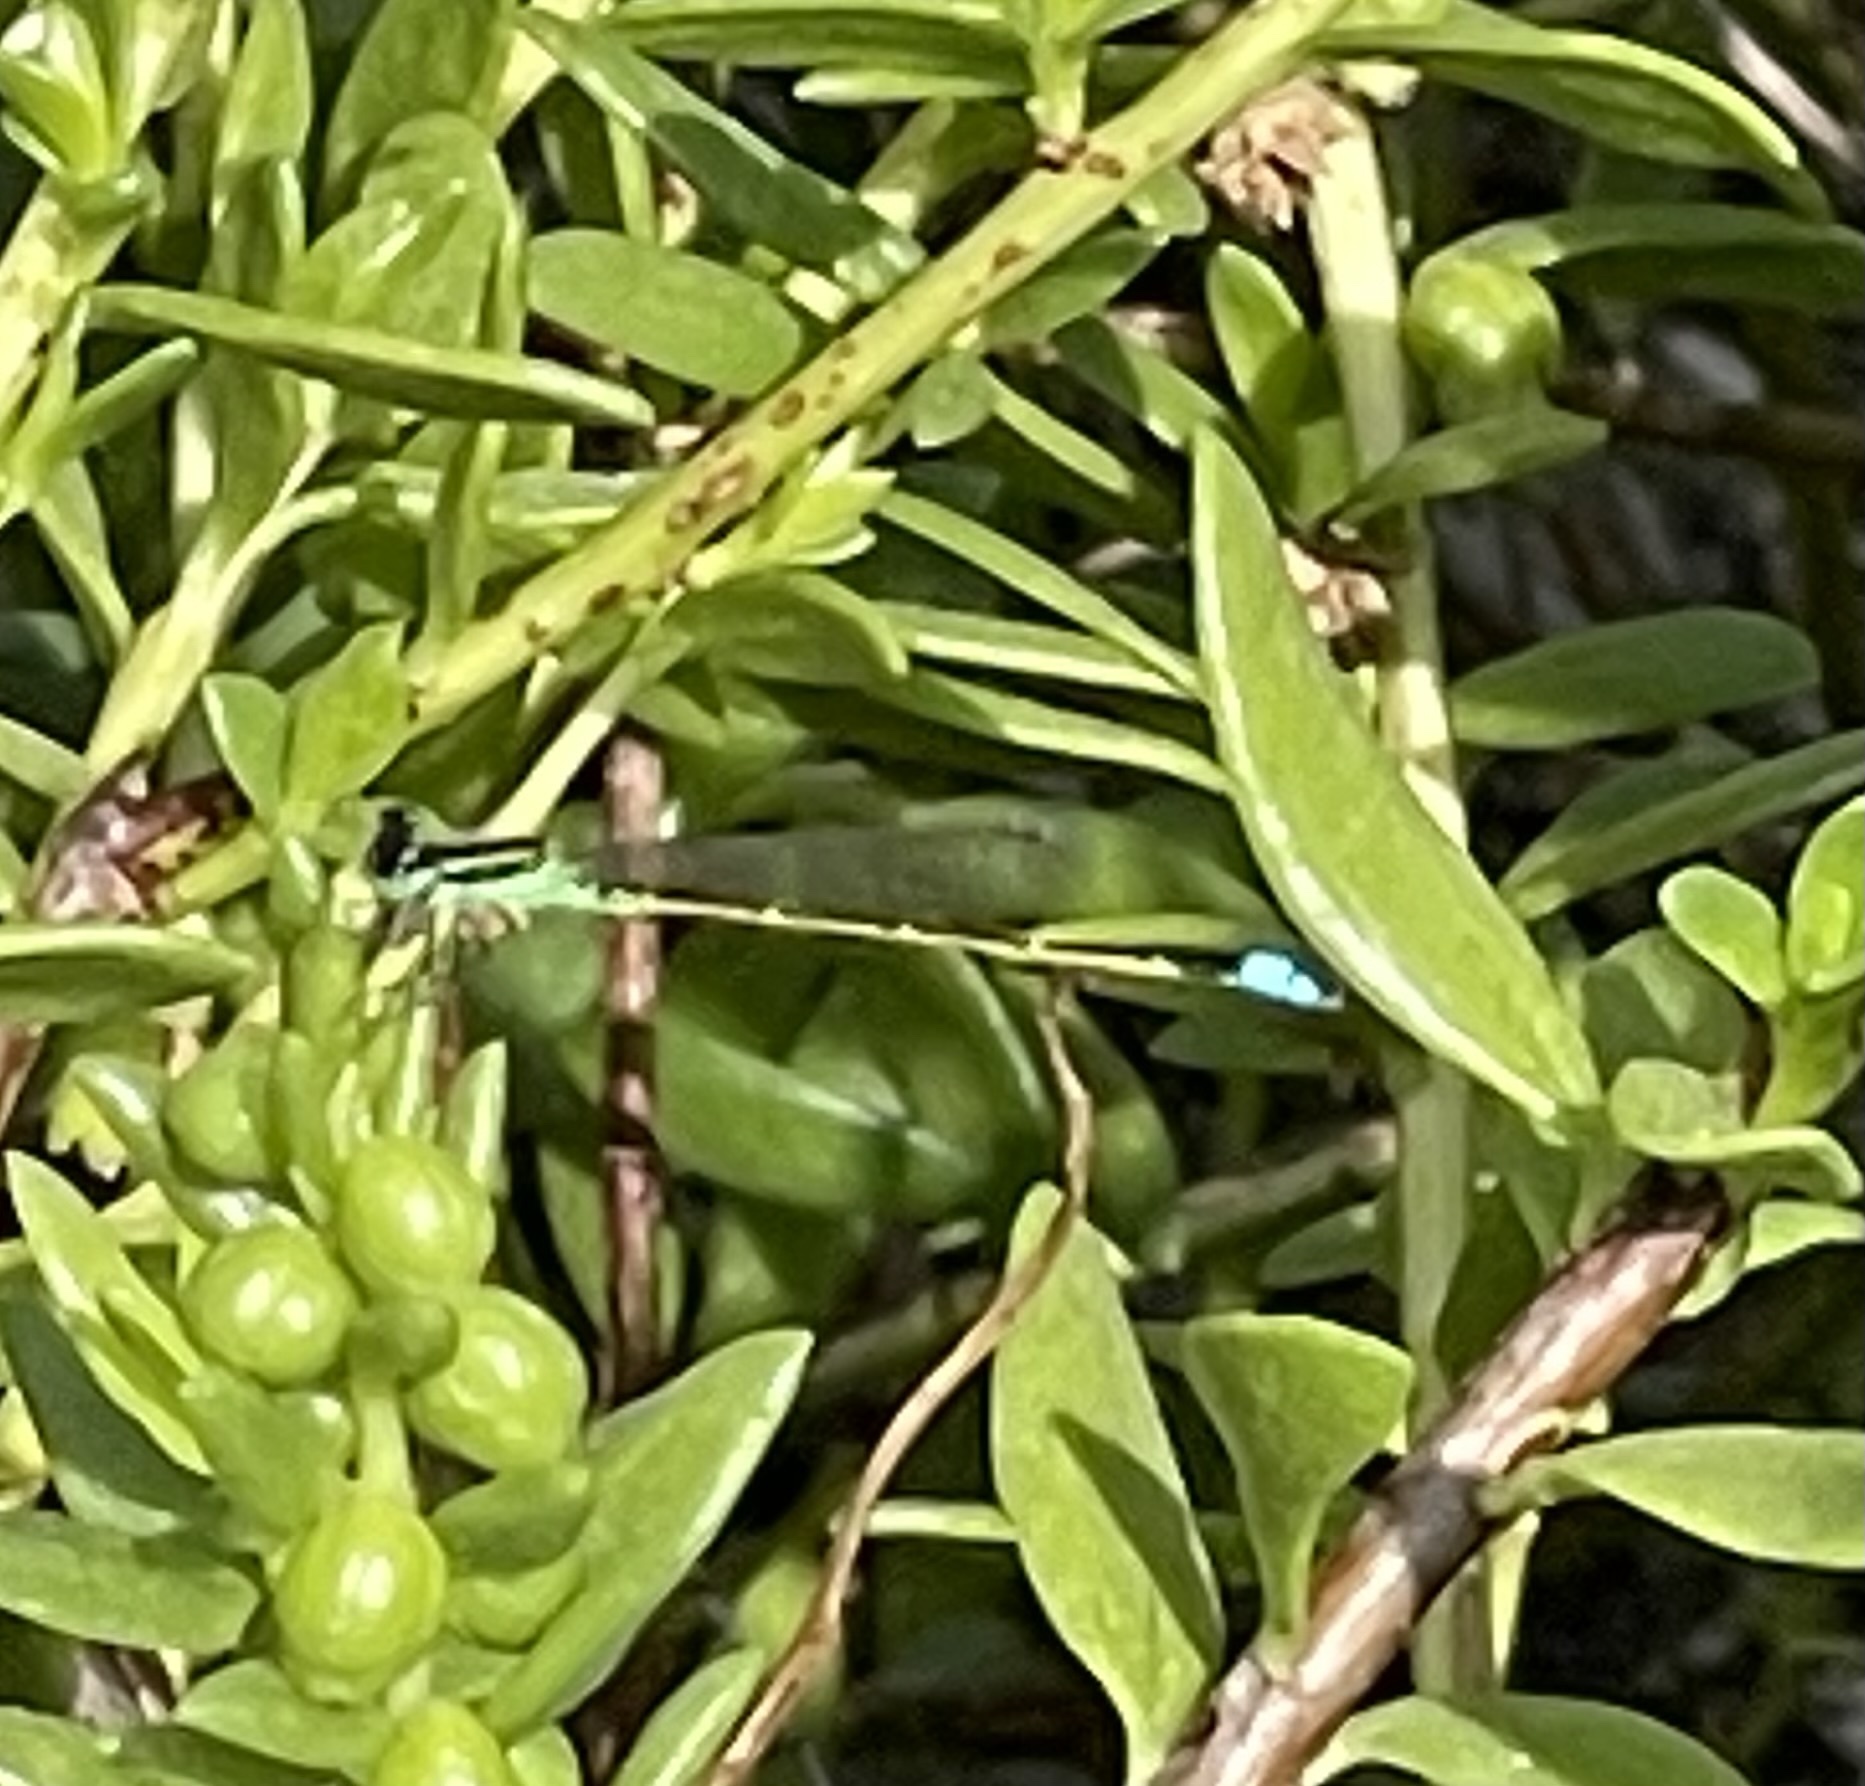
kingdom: Animalia
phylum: Arthropoda
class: Insecta
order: Odonata
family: Coenagrionidae
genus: Ischnura
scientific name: Ischnura ramburii
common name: Rambur's forktail
